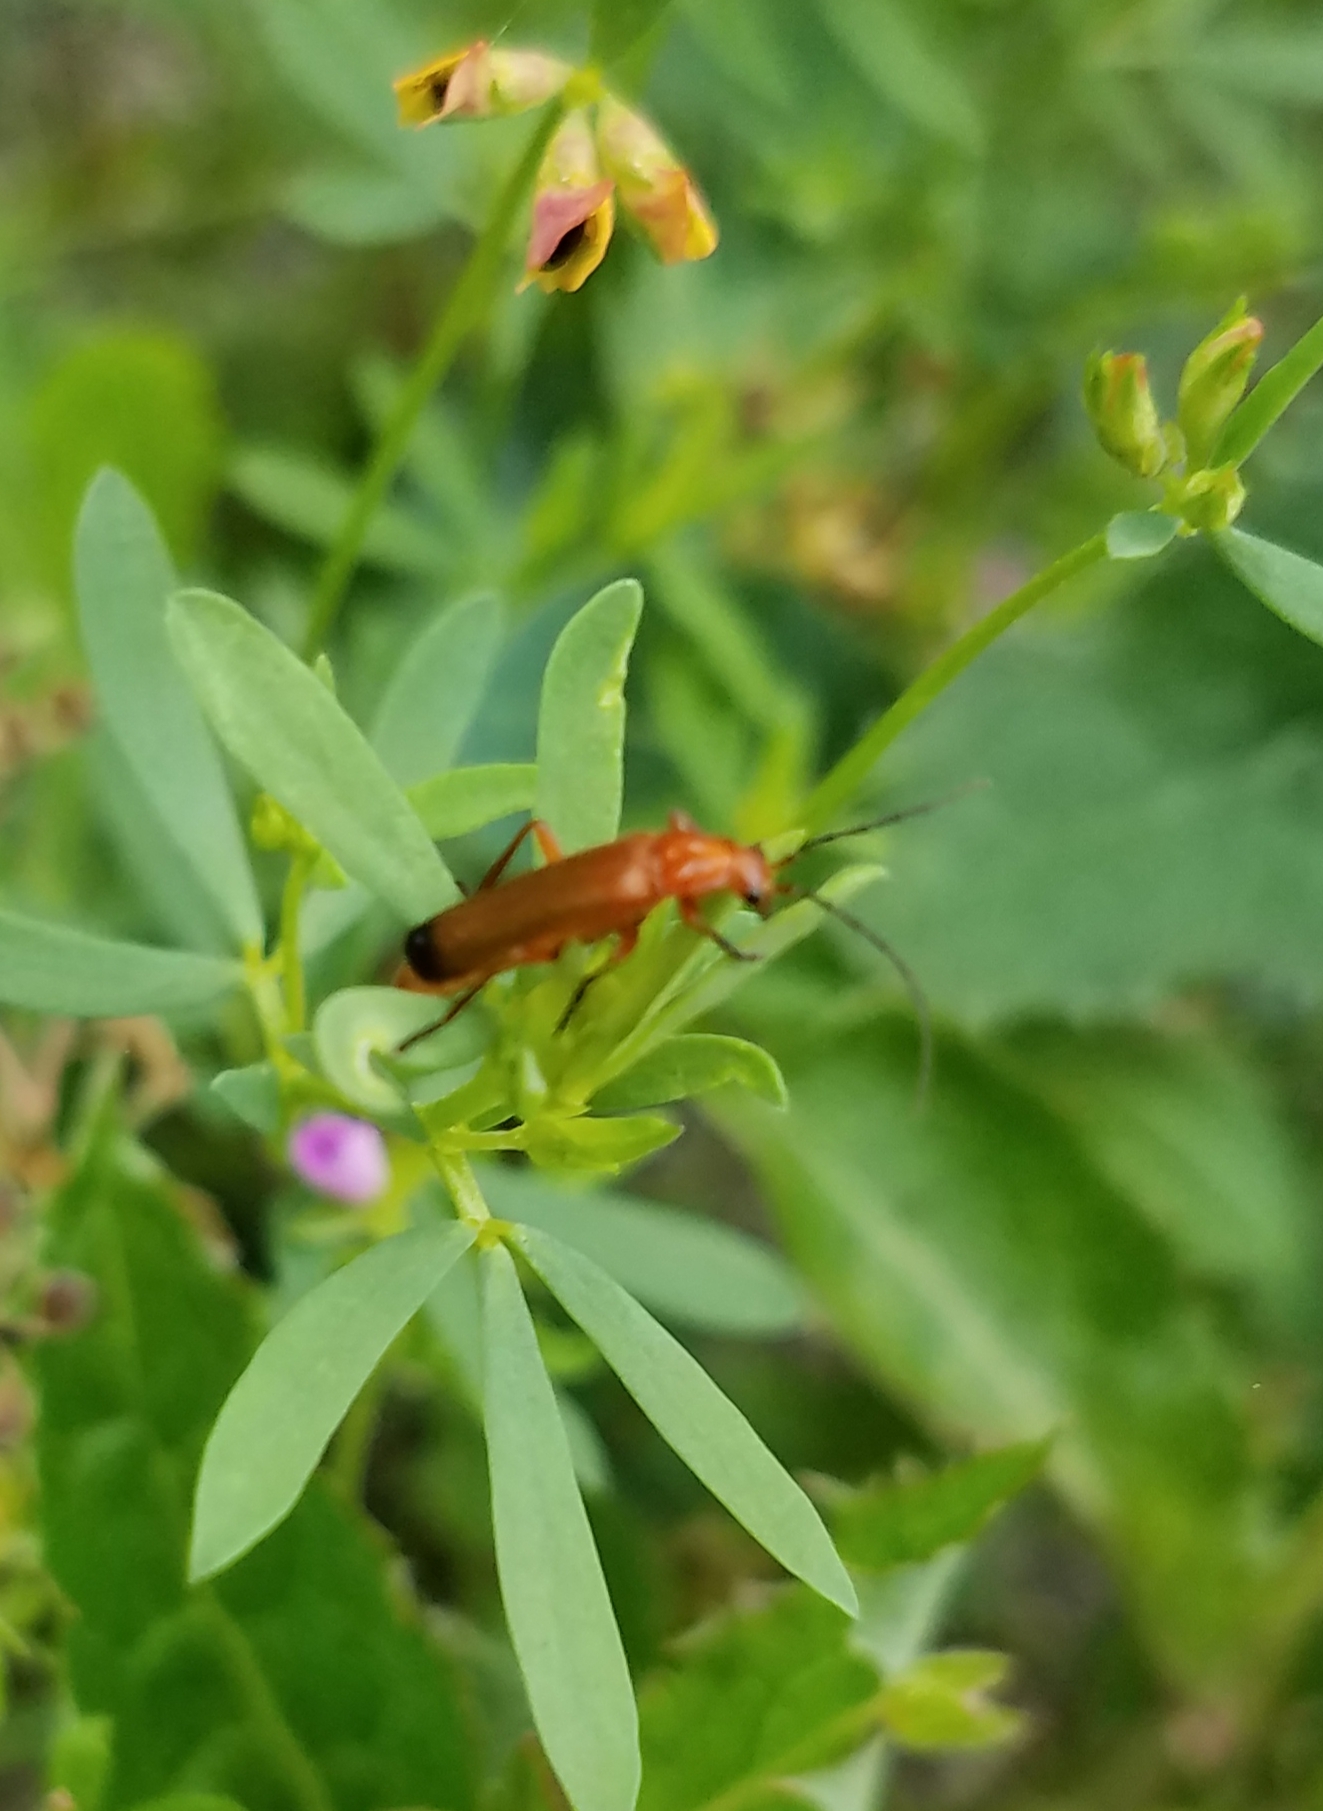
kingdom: Animalia
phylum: Arthropoda
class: Insecta
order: Coleoptera
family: Cantharidae
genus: Rhagonycha
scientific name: Rhagonycha fulva
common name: Common red soldier beetle
